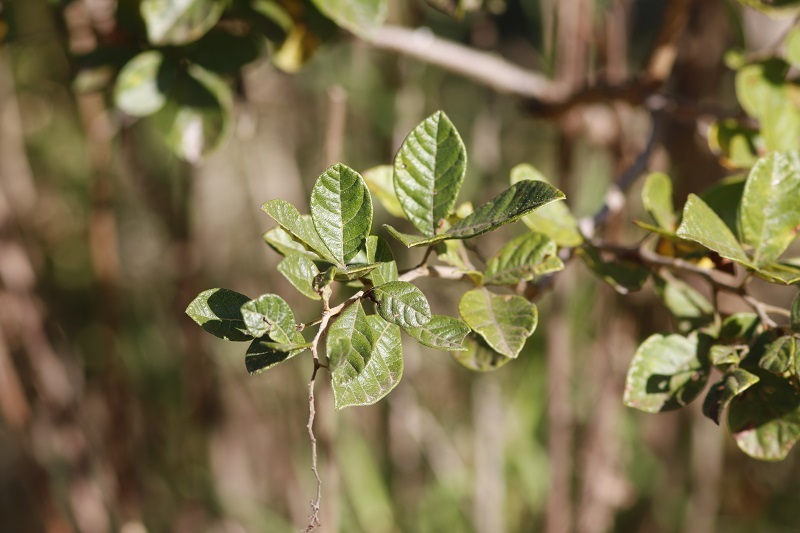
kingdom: Plantae
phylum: Tracheophyta
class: Magnoliopsida
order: Sapindales
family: Anacardiaceae
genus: Searsia
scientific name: Searsia tomentosa
